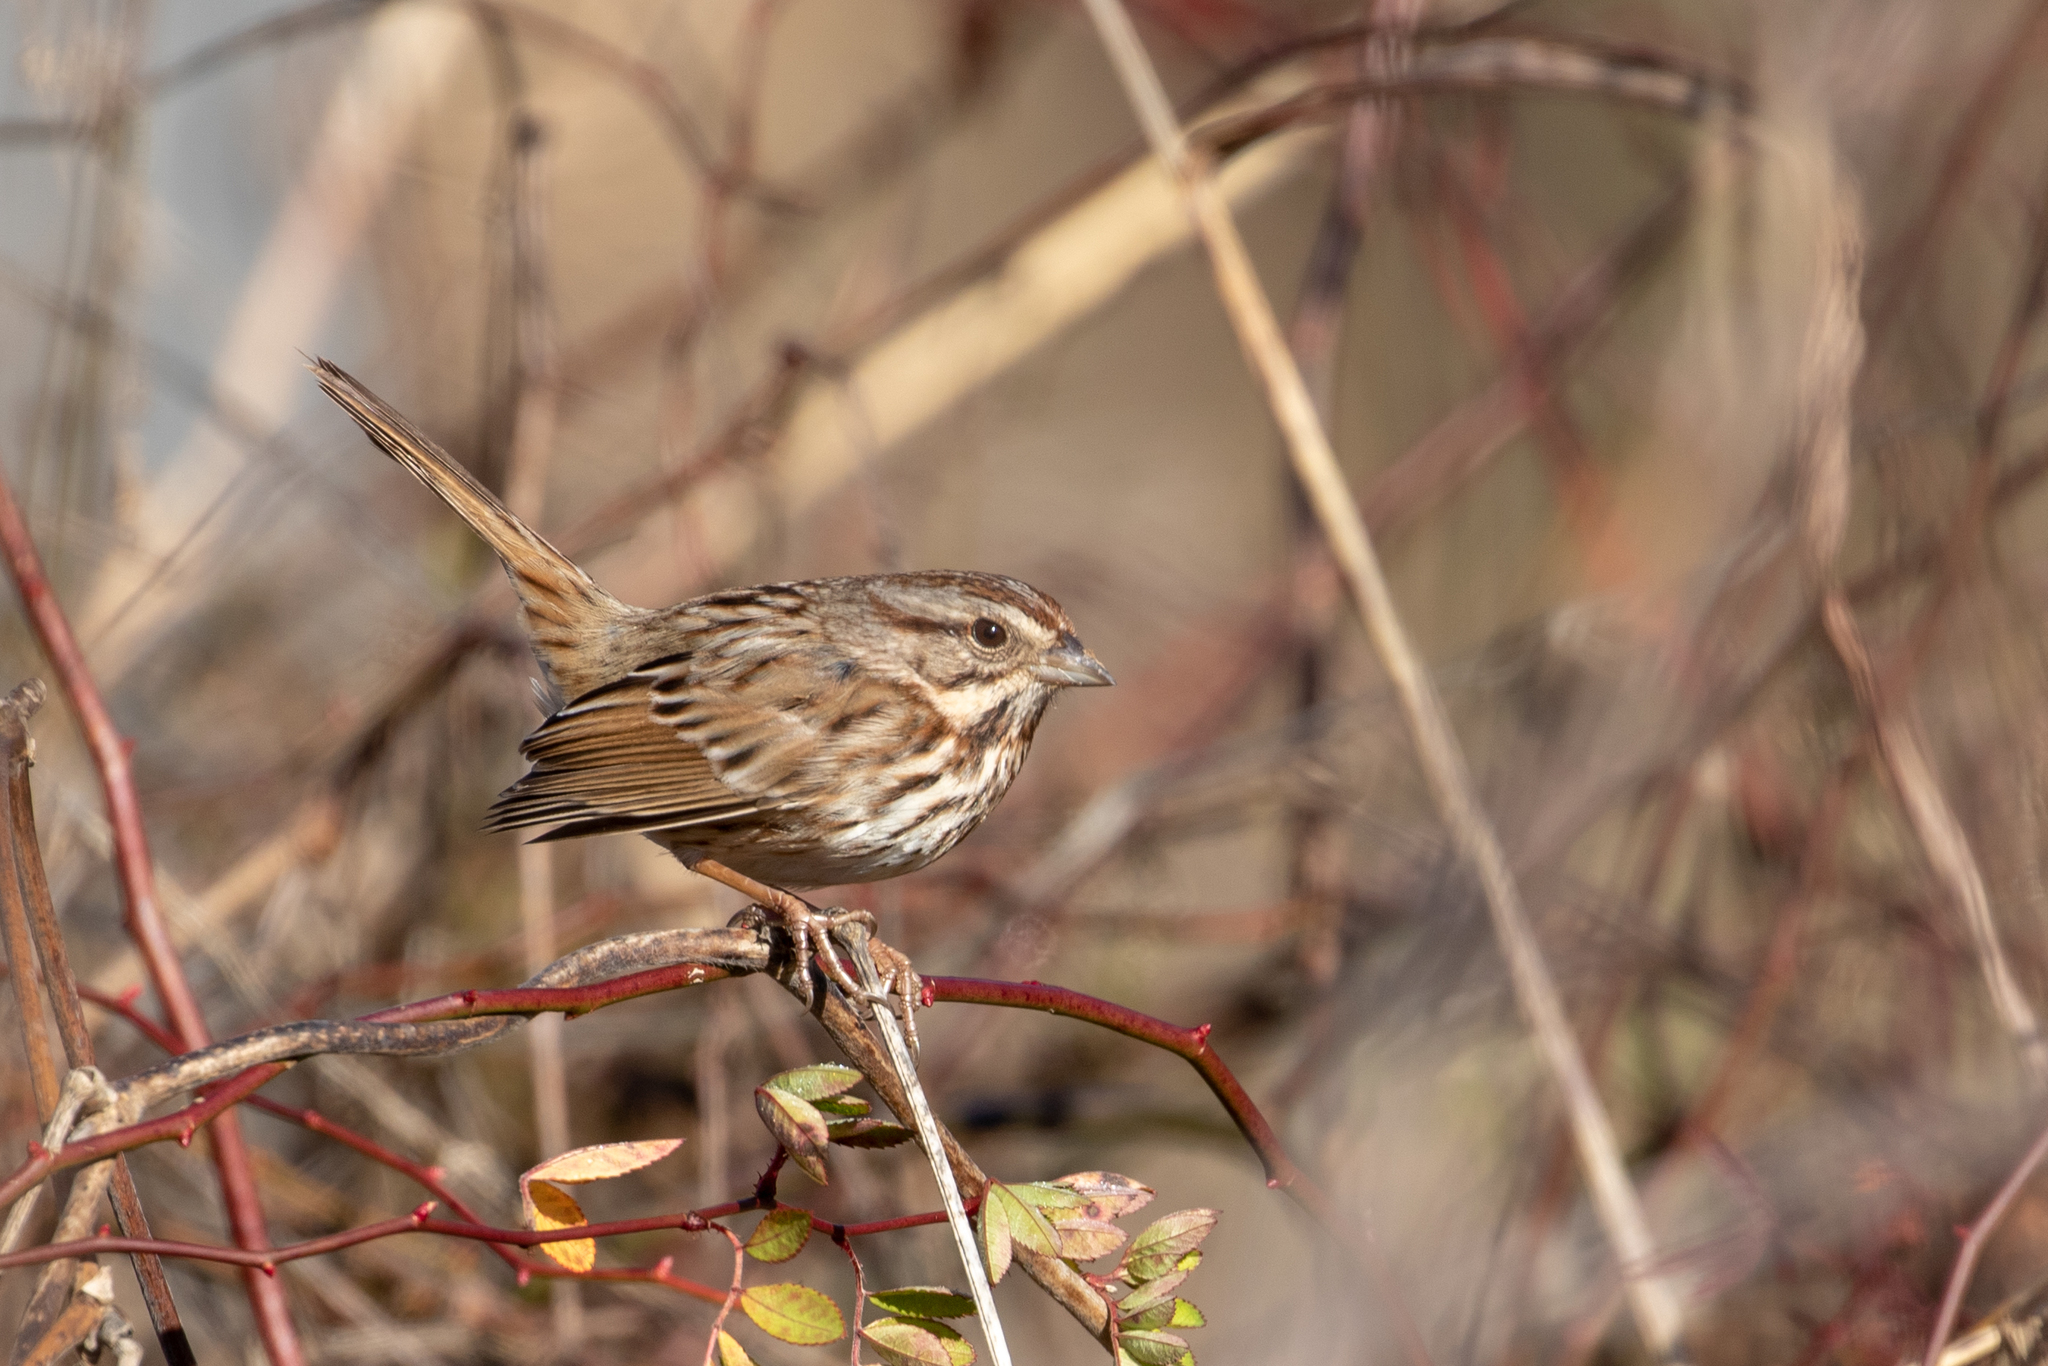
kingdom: Animalia
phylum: Chordata
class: Aves
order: Passeriformes
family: Passerellidae
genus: Melospiza
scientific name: Melospiza melodia
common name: Song sparrow
